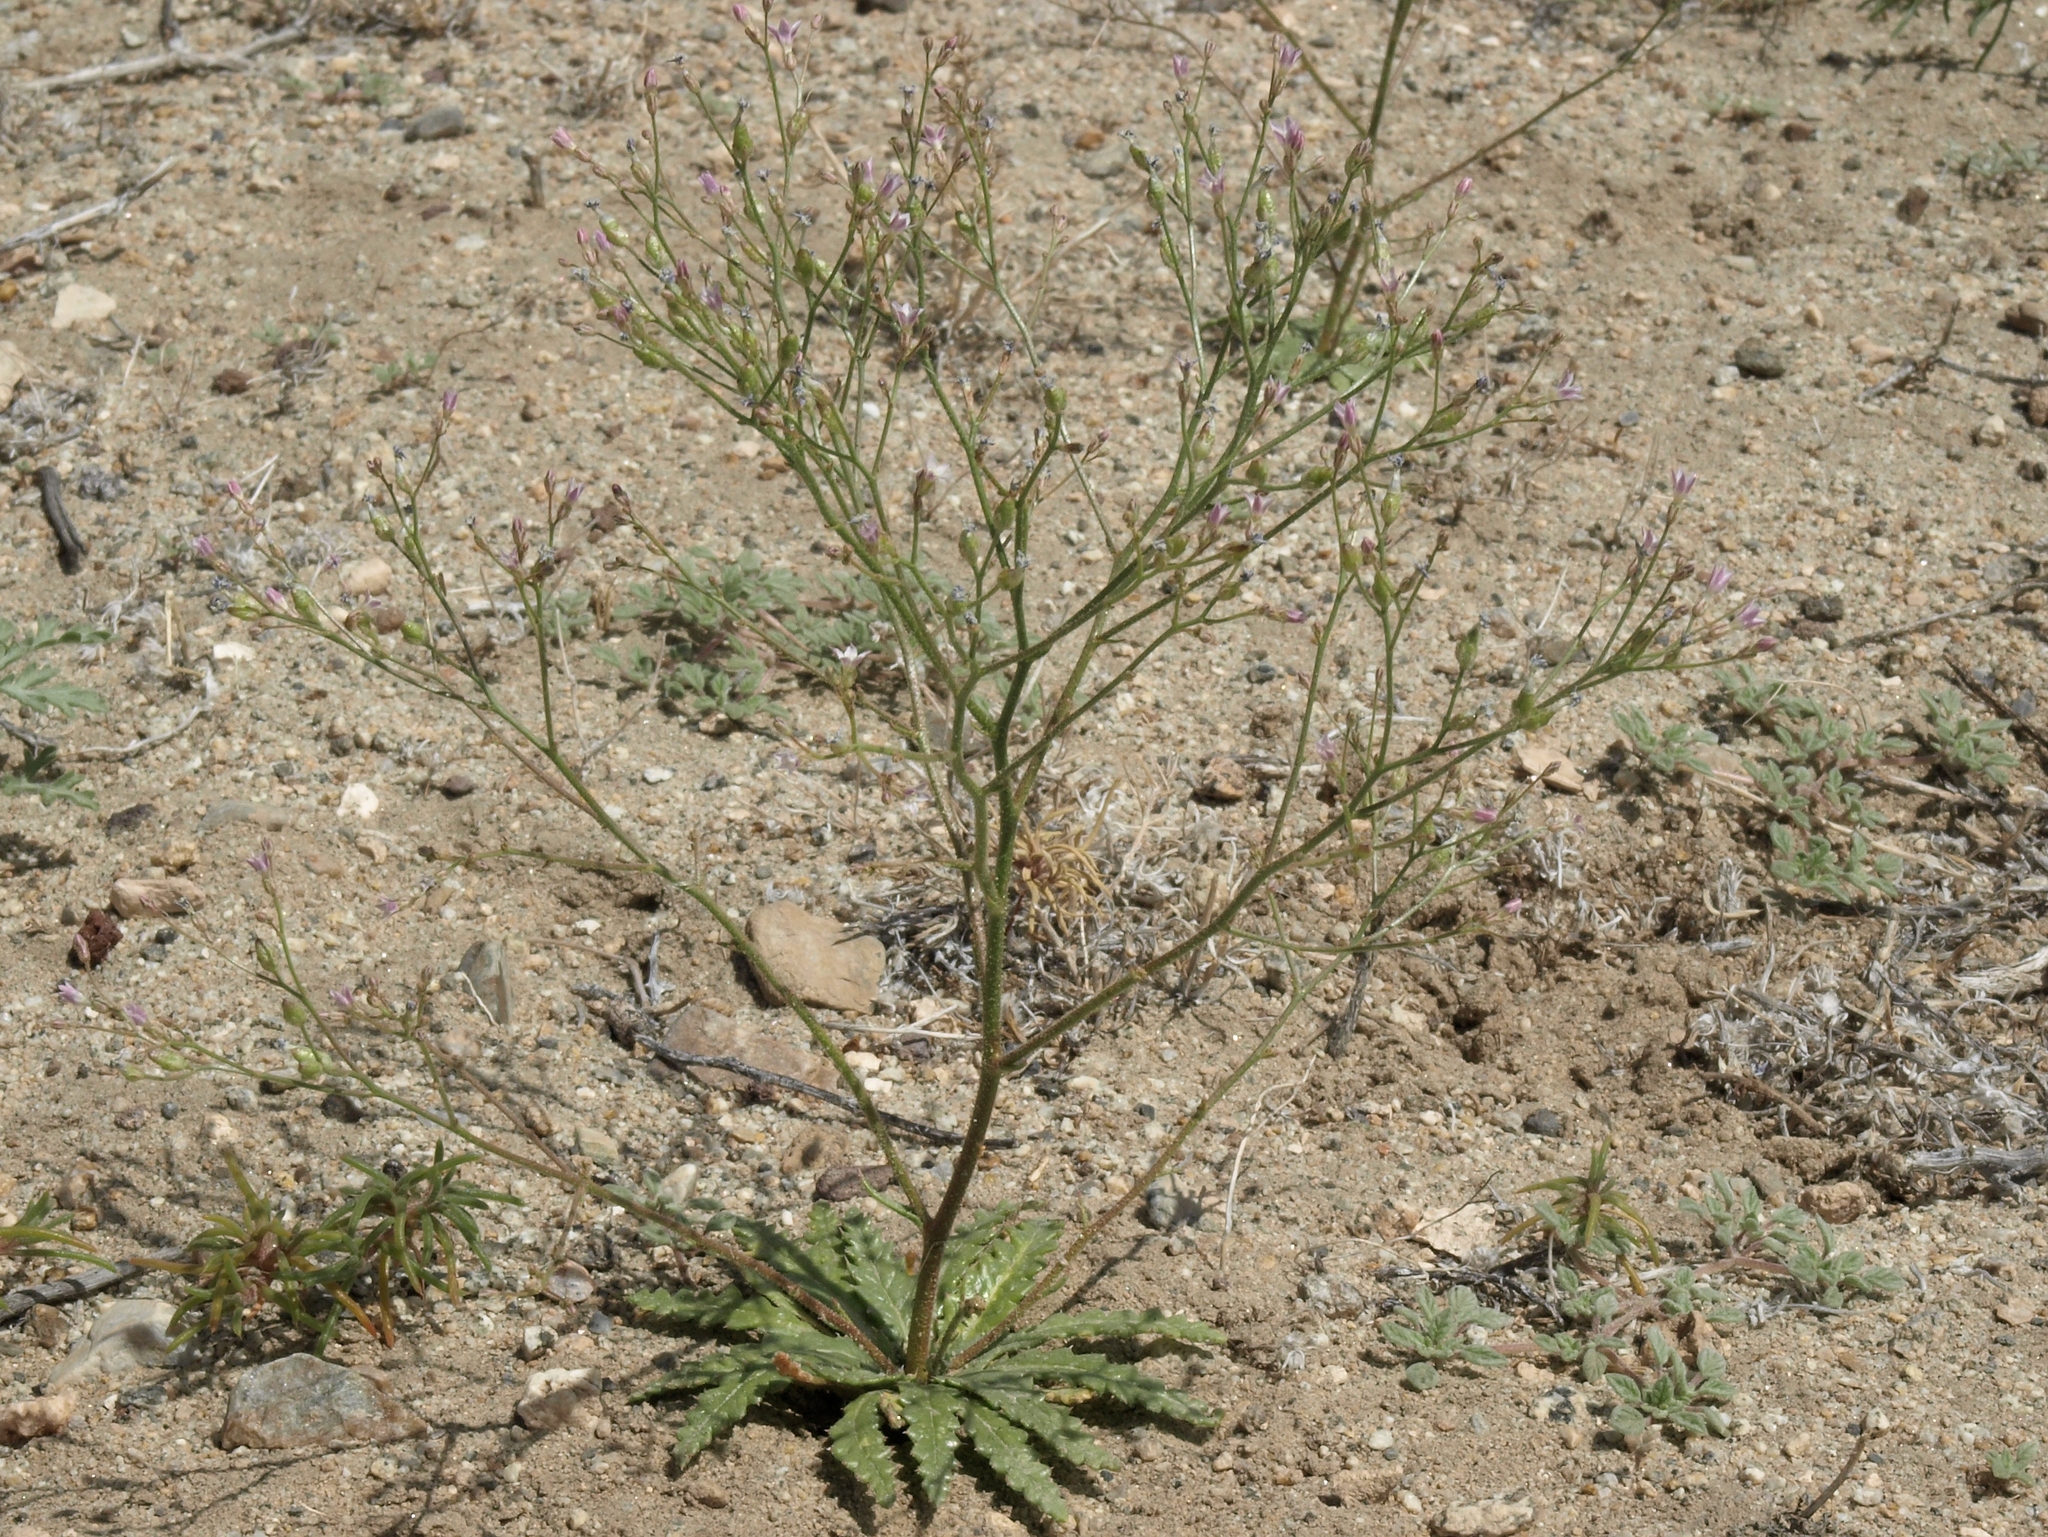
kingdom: Plantae
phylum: Tracheophyta
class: Magnoliopsida
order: Ericales
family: Polemoniaceae
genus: Aliciella
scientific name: Aliciella lottiae
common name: Lott's gilia
